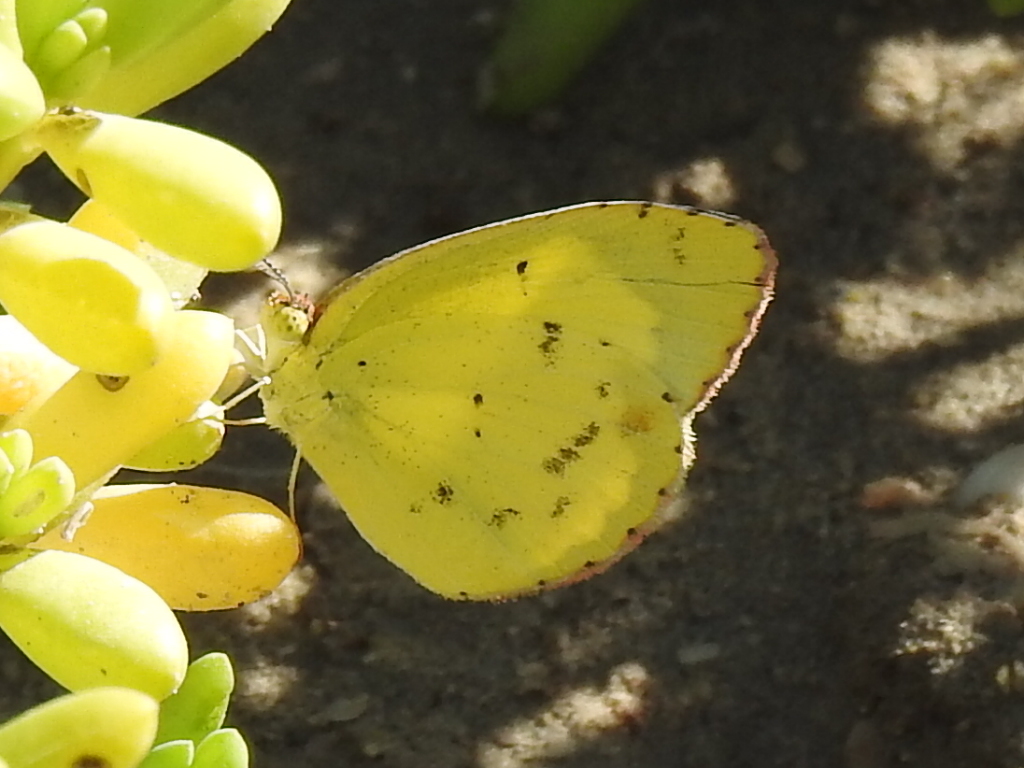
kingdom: Animalia
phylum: Arthropoda
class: Insecta
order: Lepidoptera
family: Pieridae
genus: Pyrisitia
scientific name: Pyrisitia lisa
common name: Little yellow
